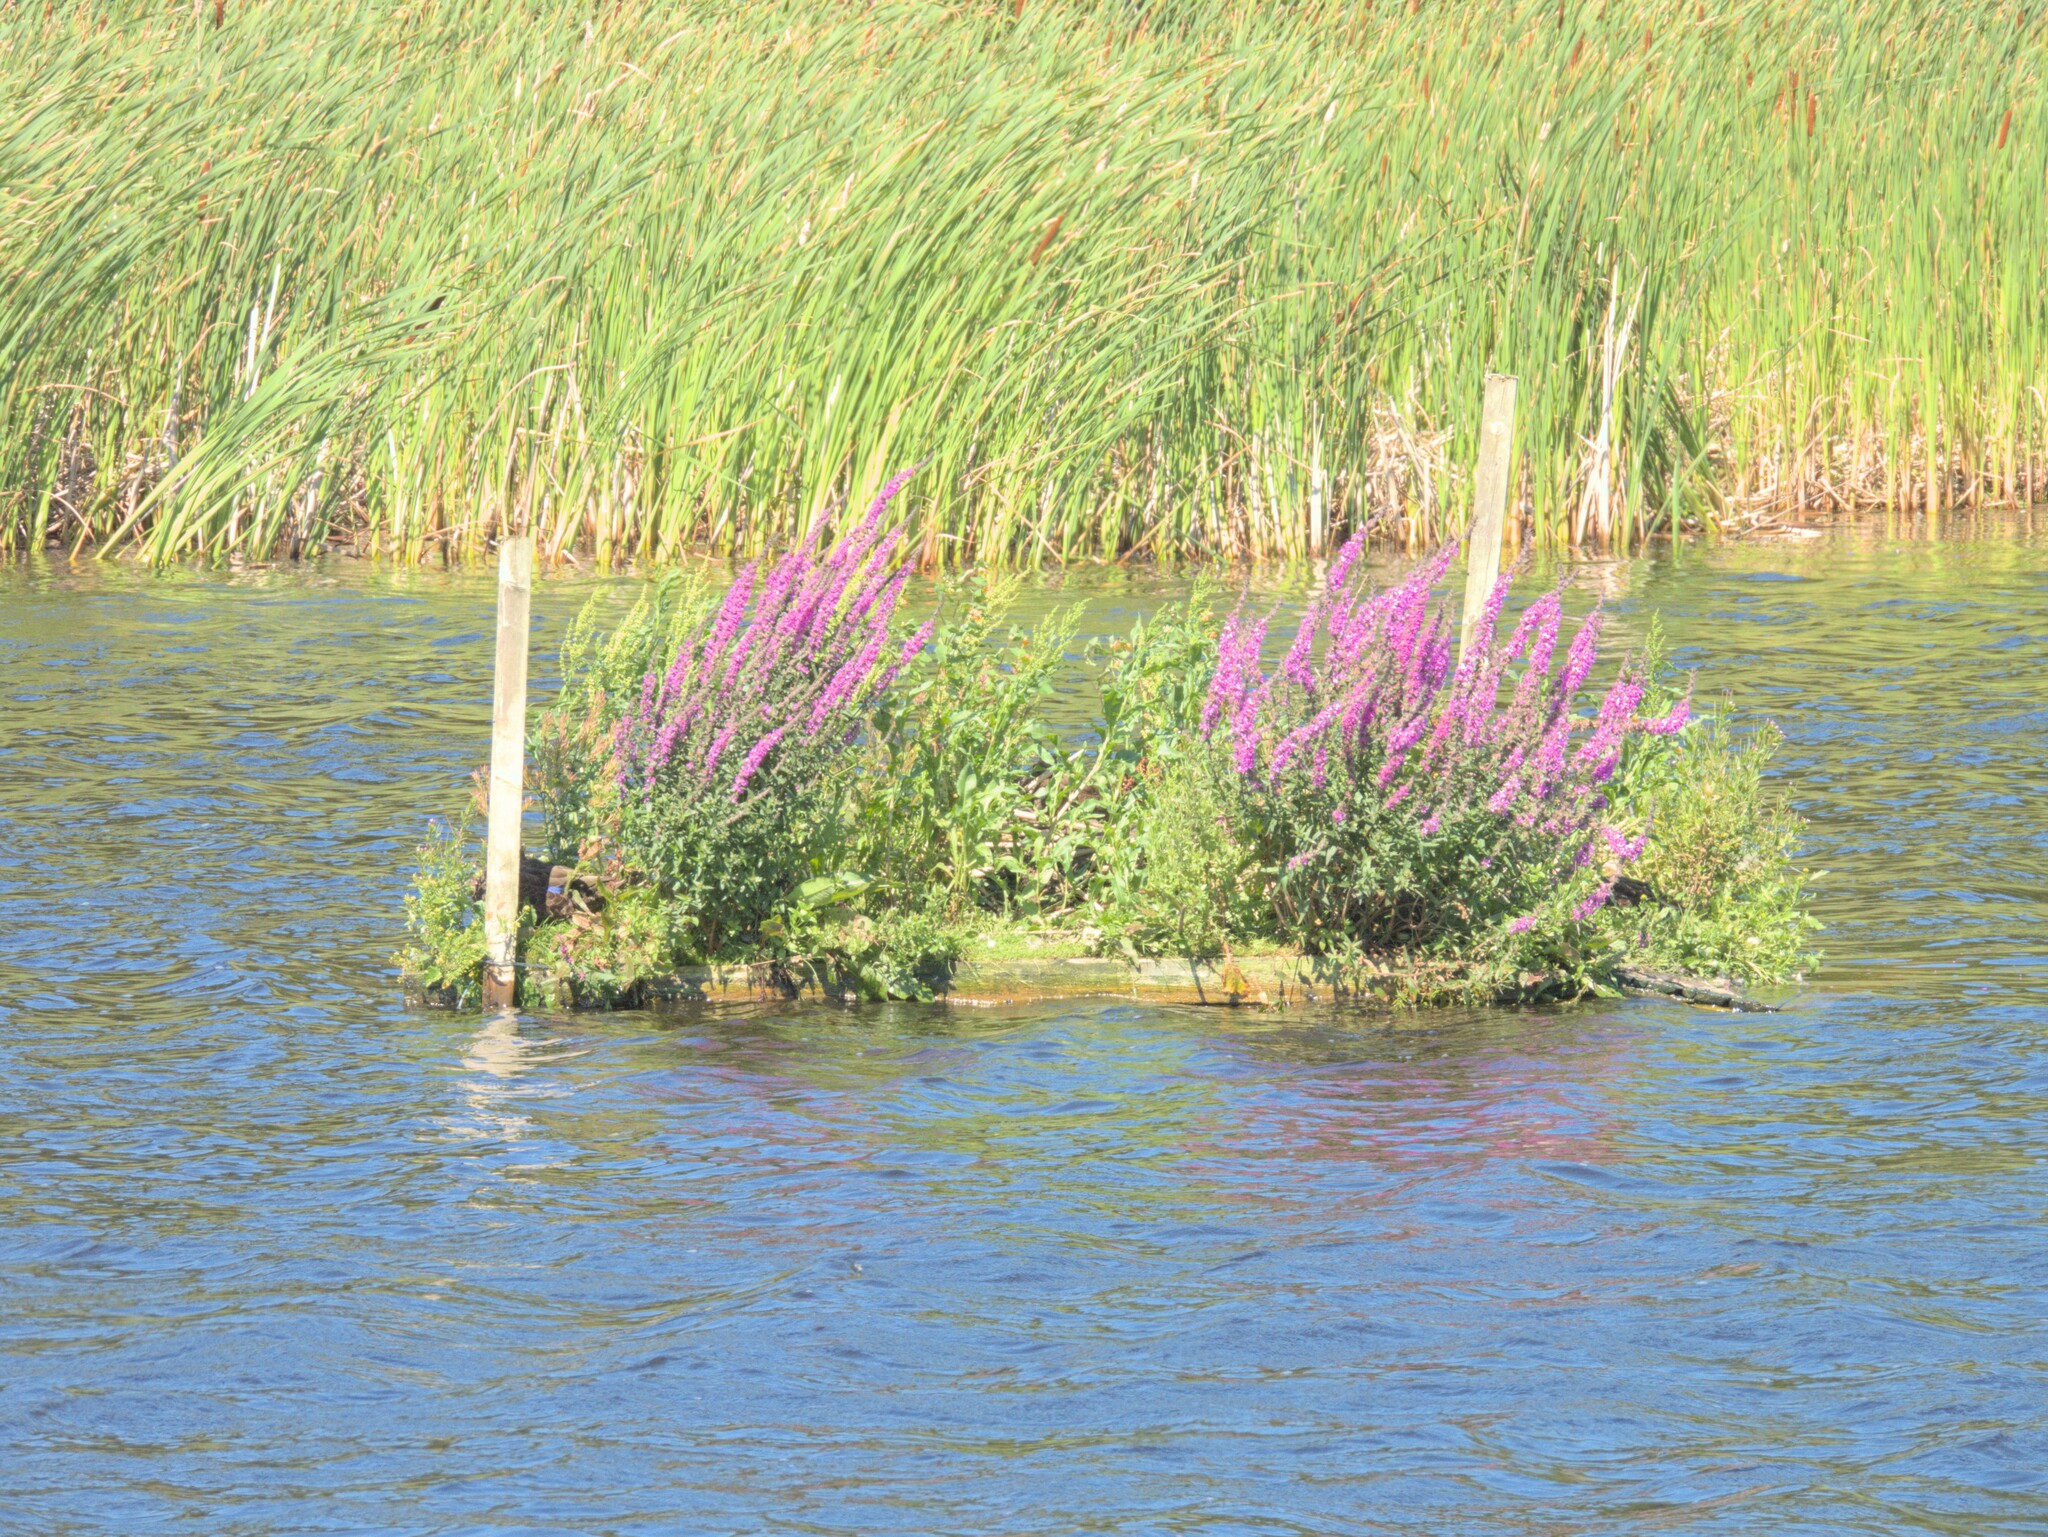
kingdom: Plantae
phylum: Tracheophyta
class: Magnoliopsida
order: Myrtales
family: Lythraceae
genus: Lythrum
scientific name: Lythrum salicaria
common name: Purple loosestrife
